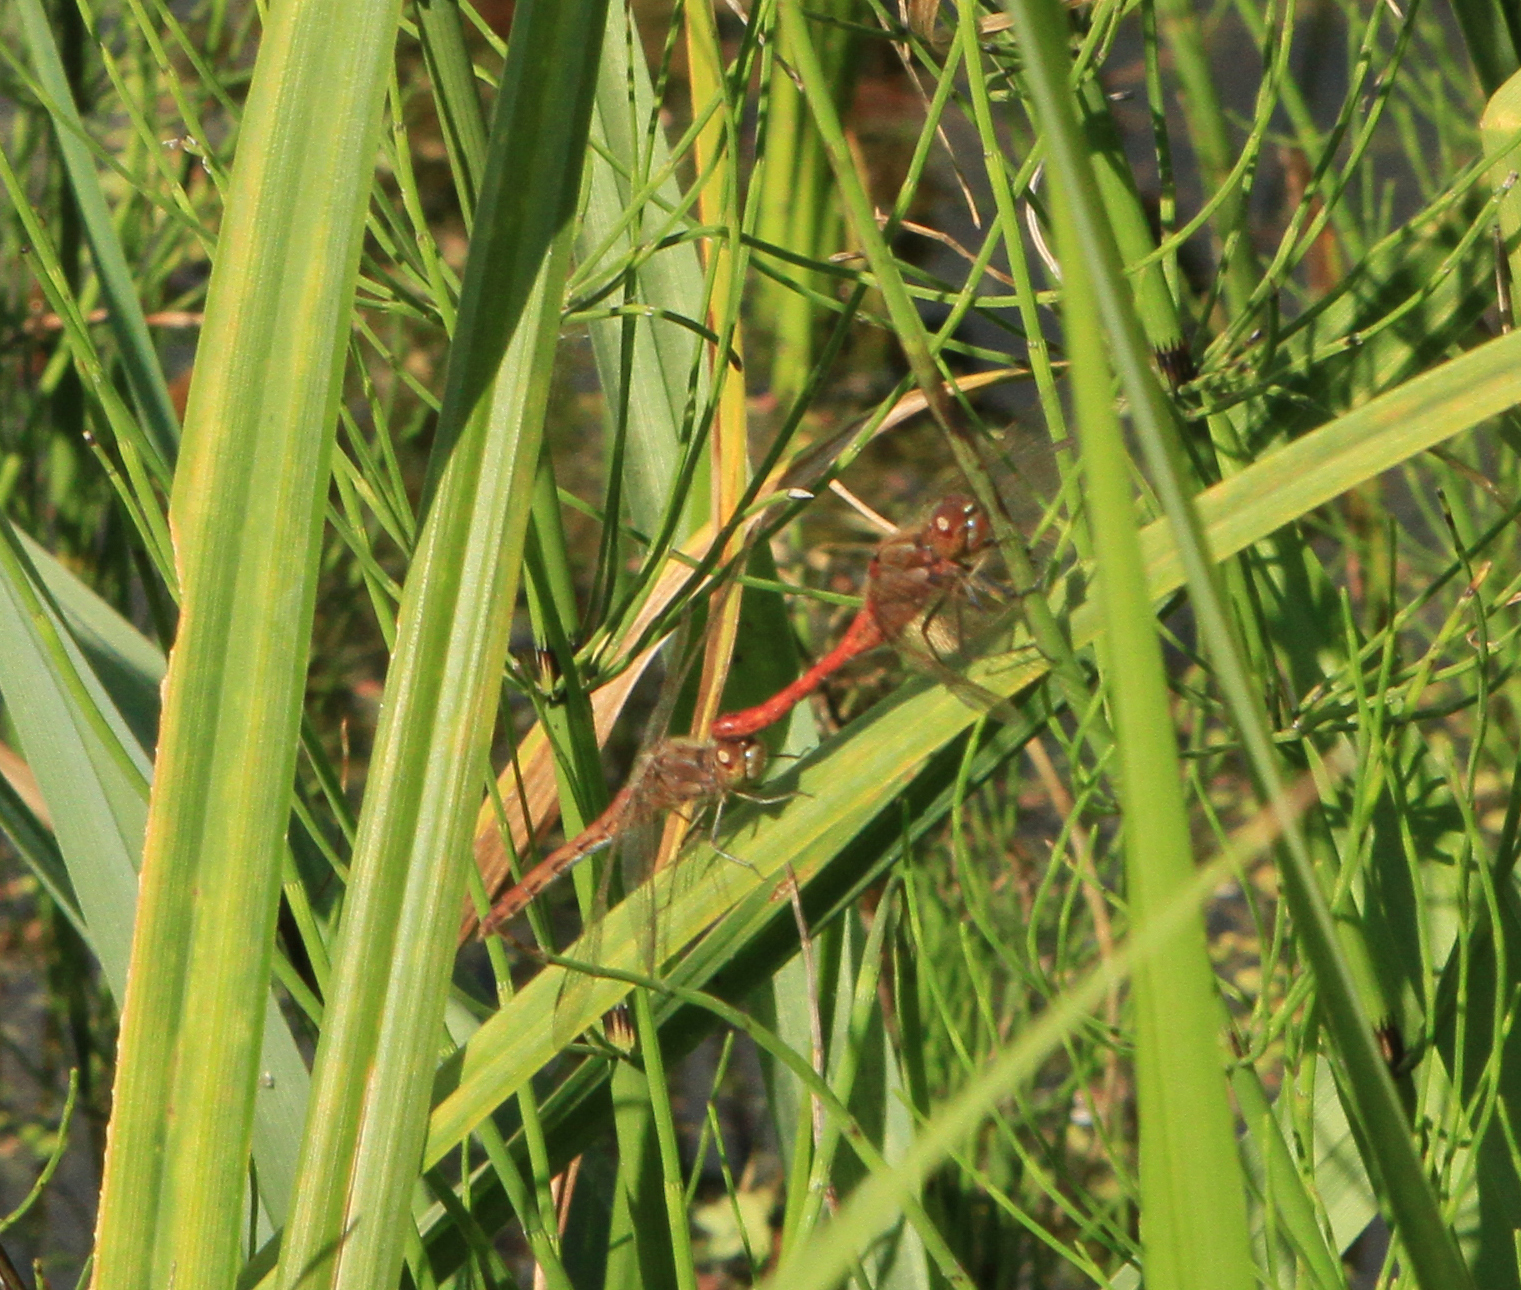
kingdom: Animalia
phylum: Arthropoda
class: Insecta
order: Odonata
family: Libellulidae
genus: Sympetrum
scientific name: Sympetrum vulgatum
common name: Vagrant darter
